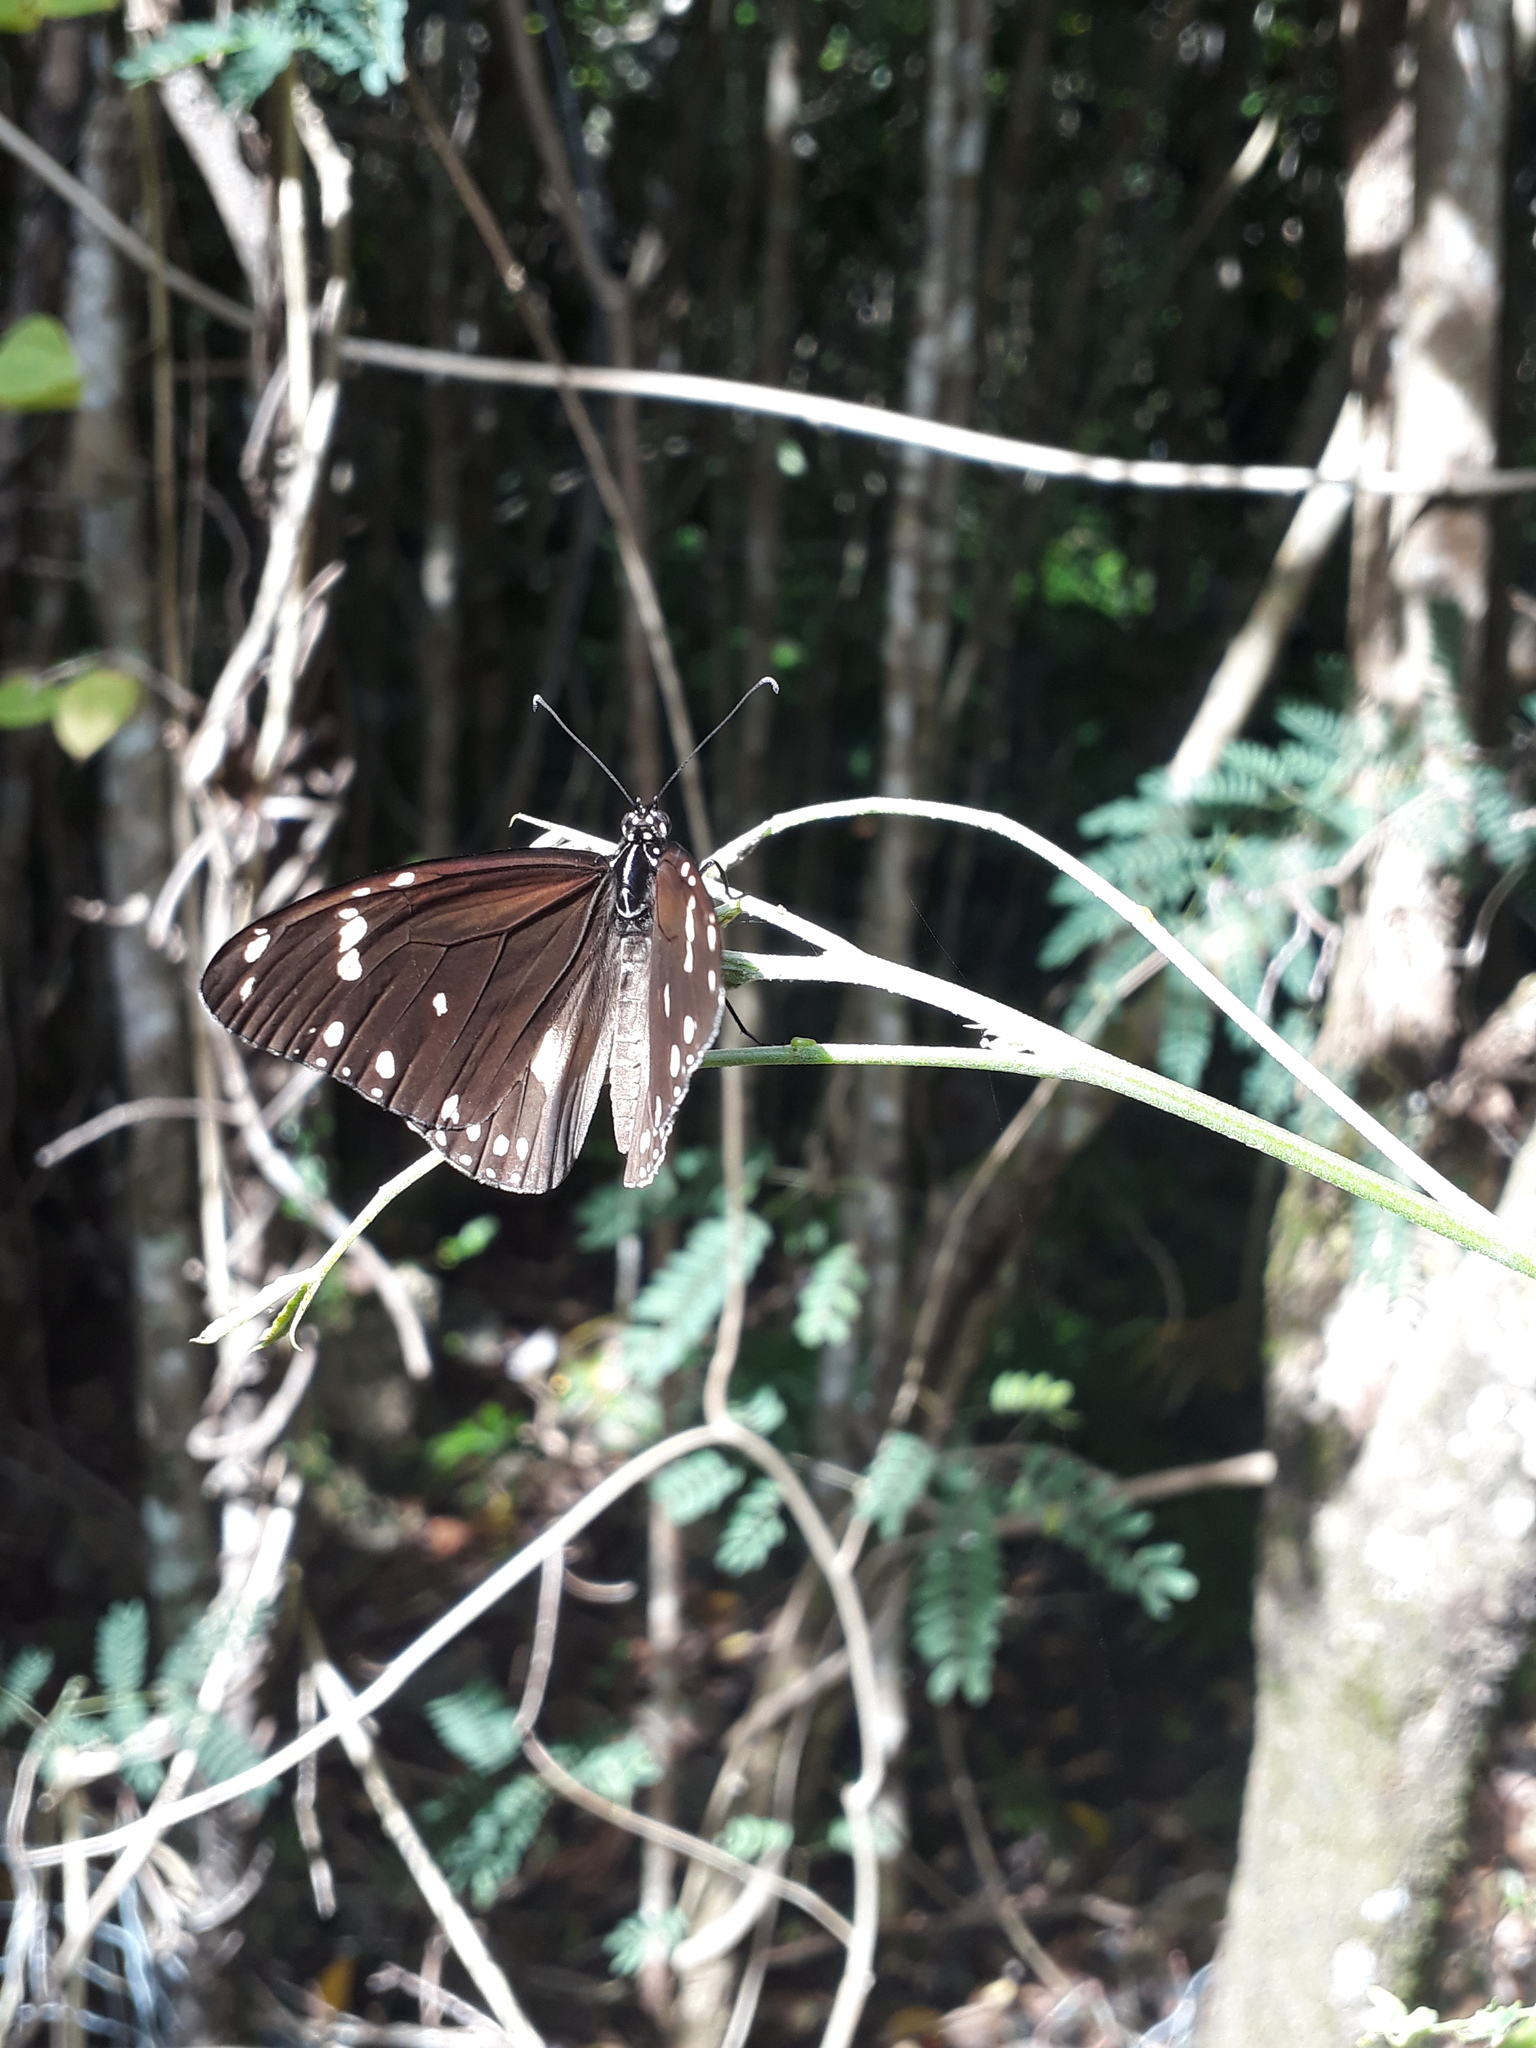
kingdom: Animalia
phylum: Arthropoda
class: Insecta
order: Lepidoptera
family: Nymphalidae
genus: Amauris
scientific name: Amauris phoedon
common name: Mauritian friar
